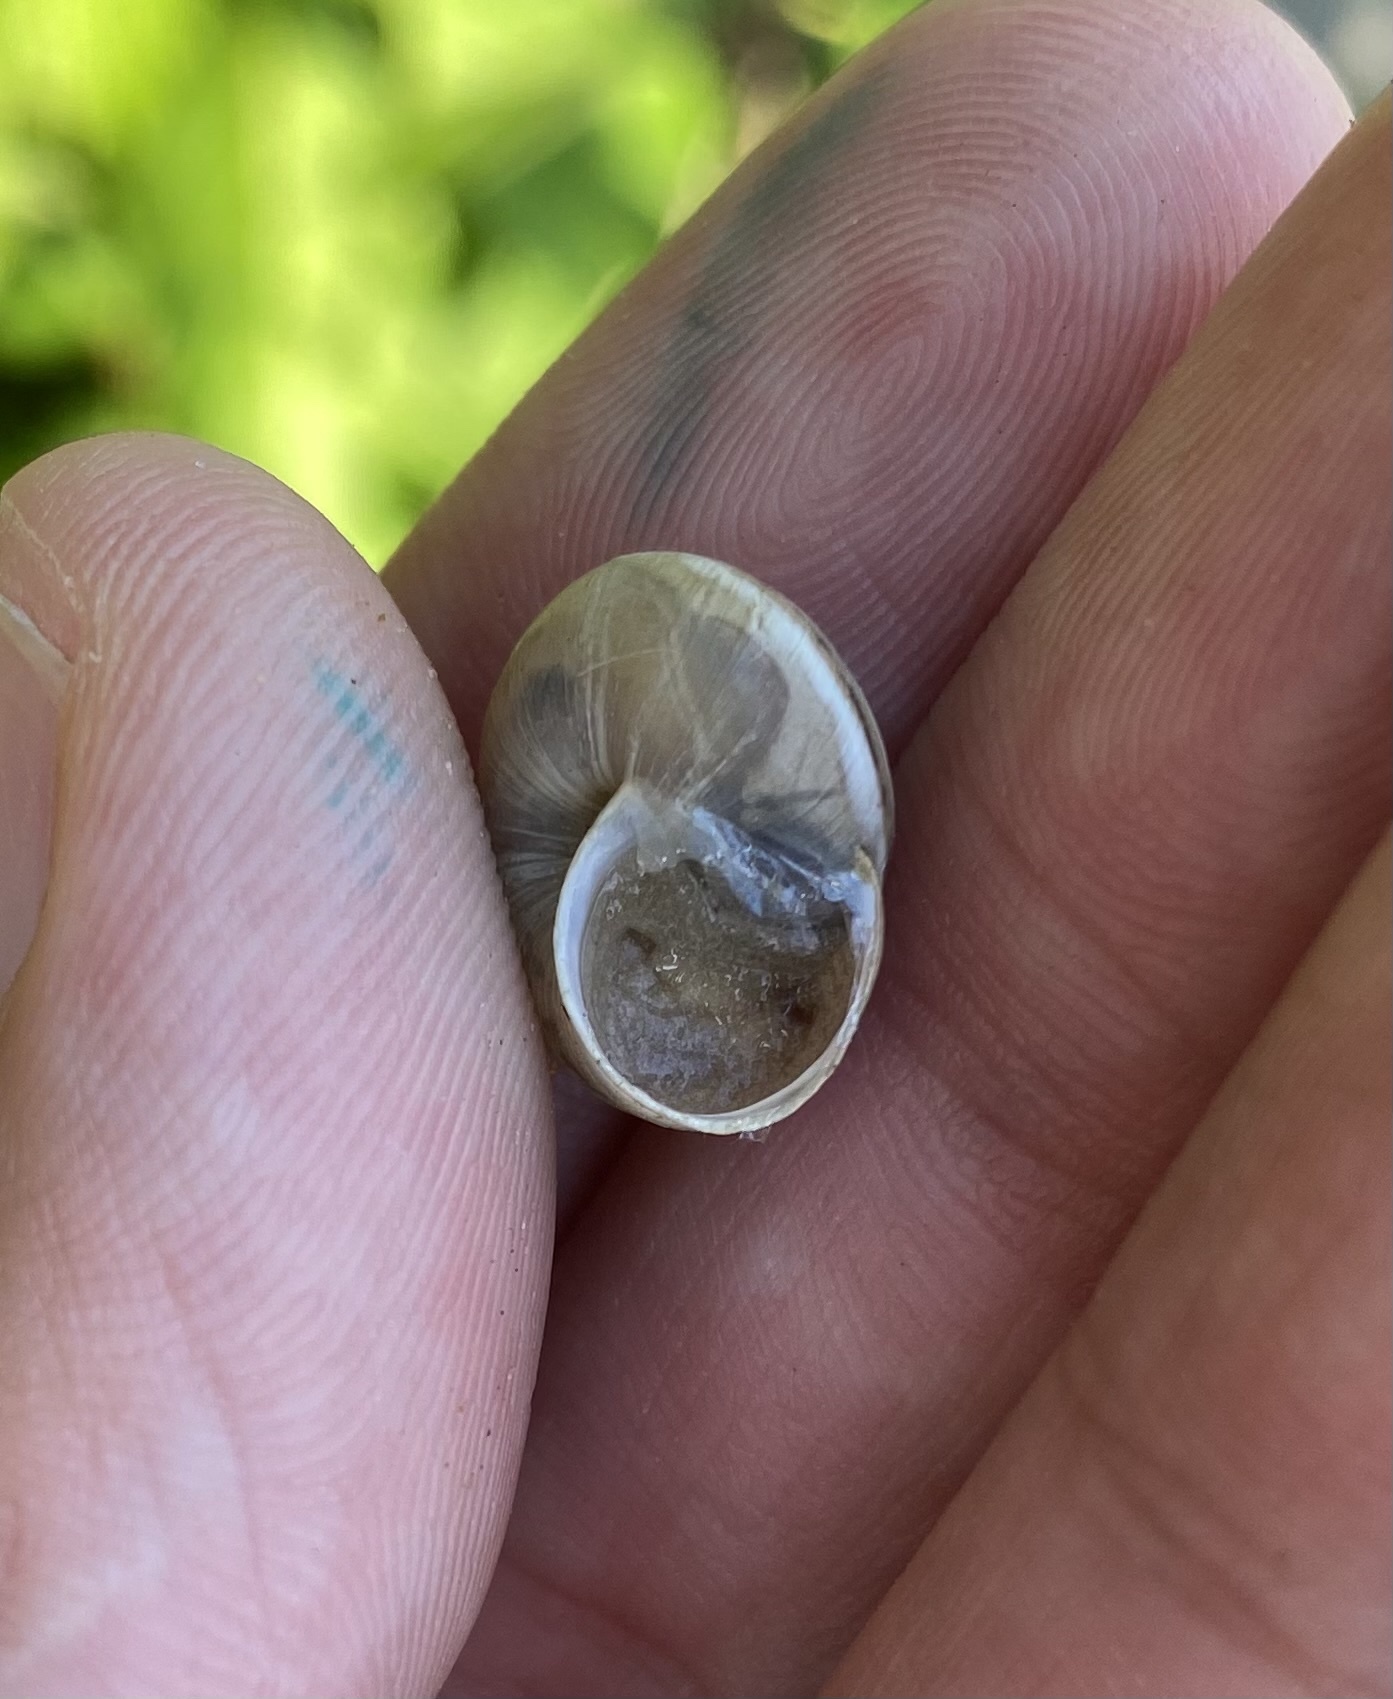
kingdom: Animalia
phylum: Mollusca
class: Gastropoda
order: Stylommatophora
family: Hygromiidae
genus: Harmozica
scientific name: Harmozica ravergiensis
